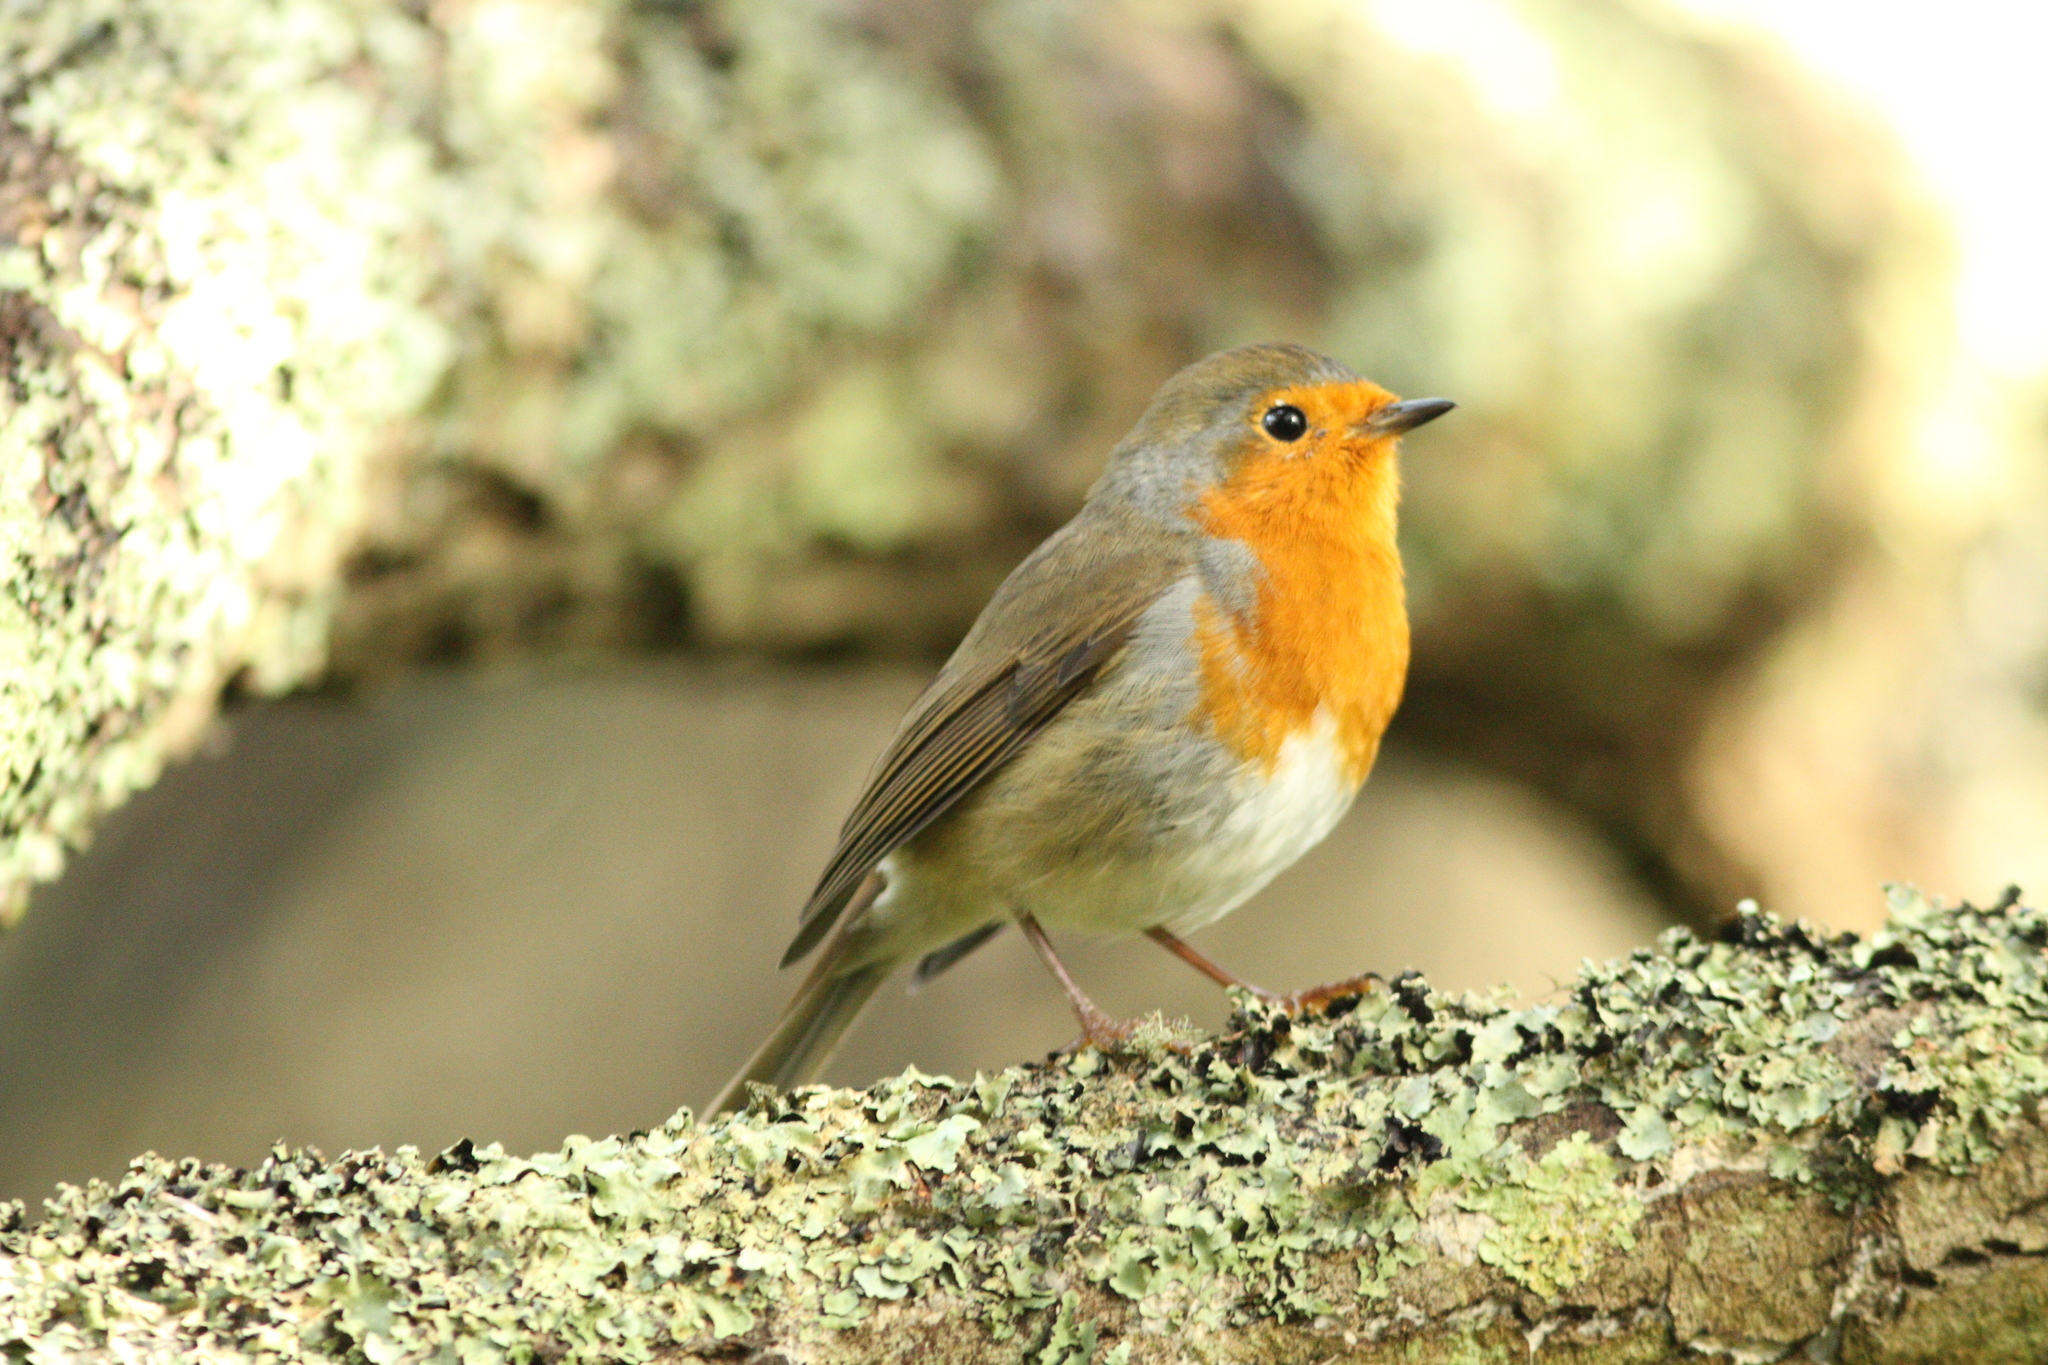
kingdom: Animalia
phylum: Chordata
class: Aves
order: Passeriformes
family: Muscicapidae
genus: Erithacus
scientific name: Erithacus rubecula
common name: European robin
